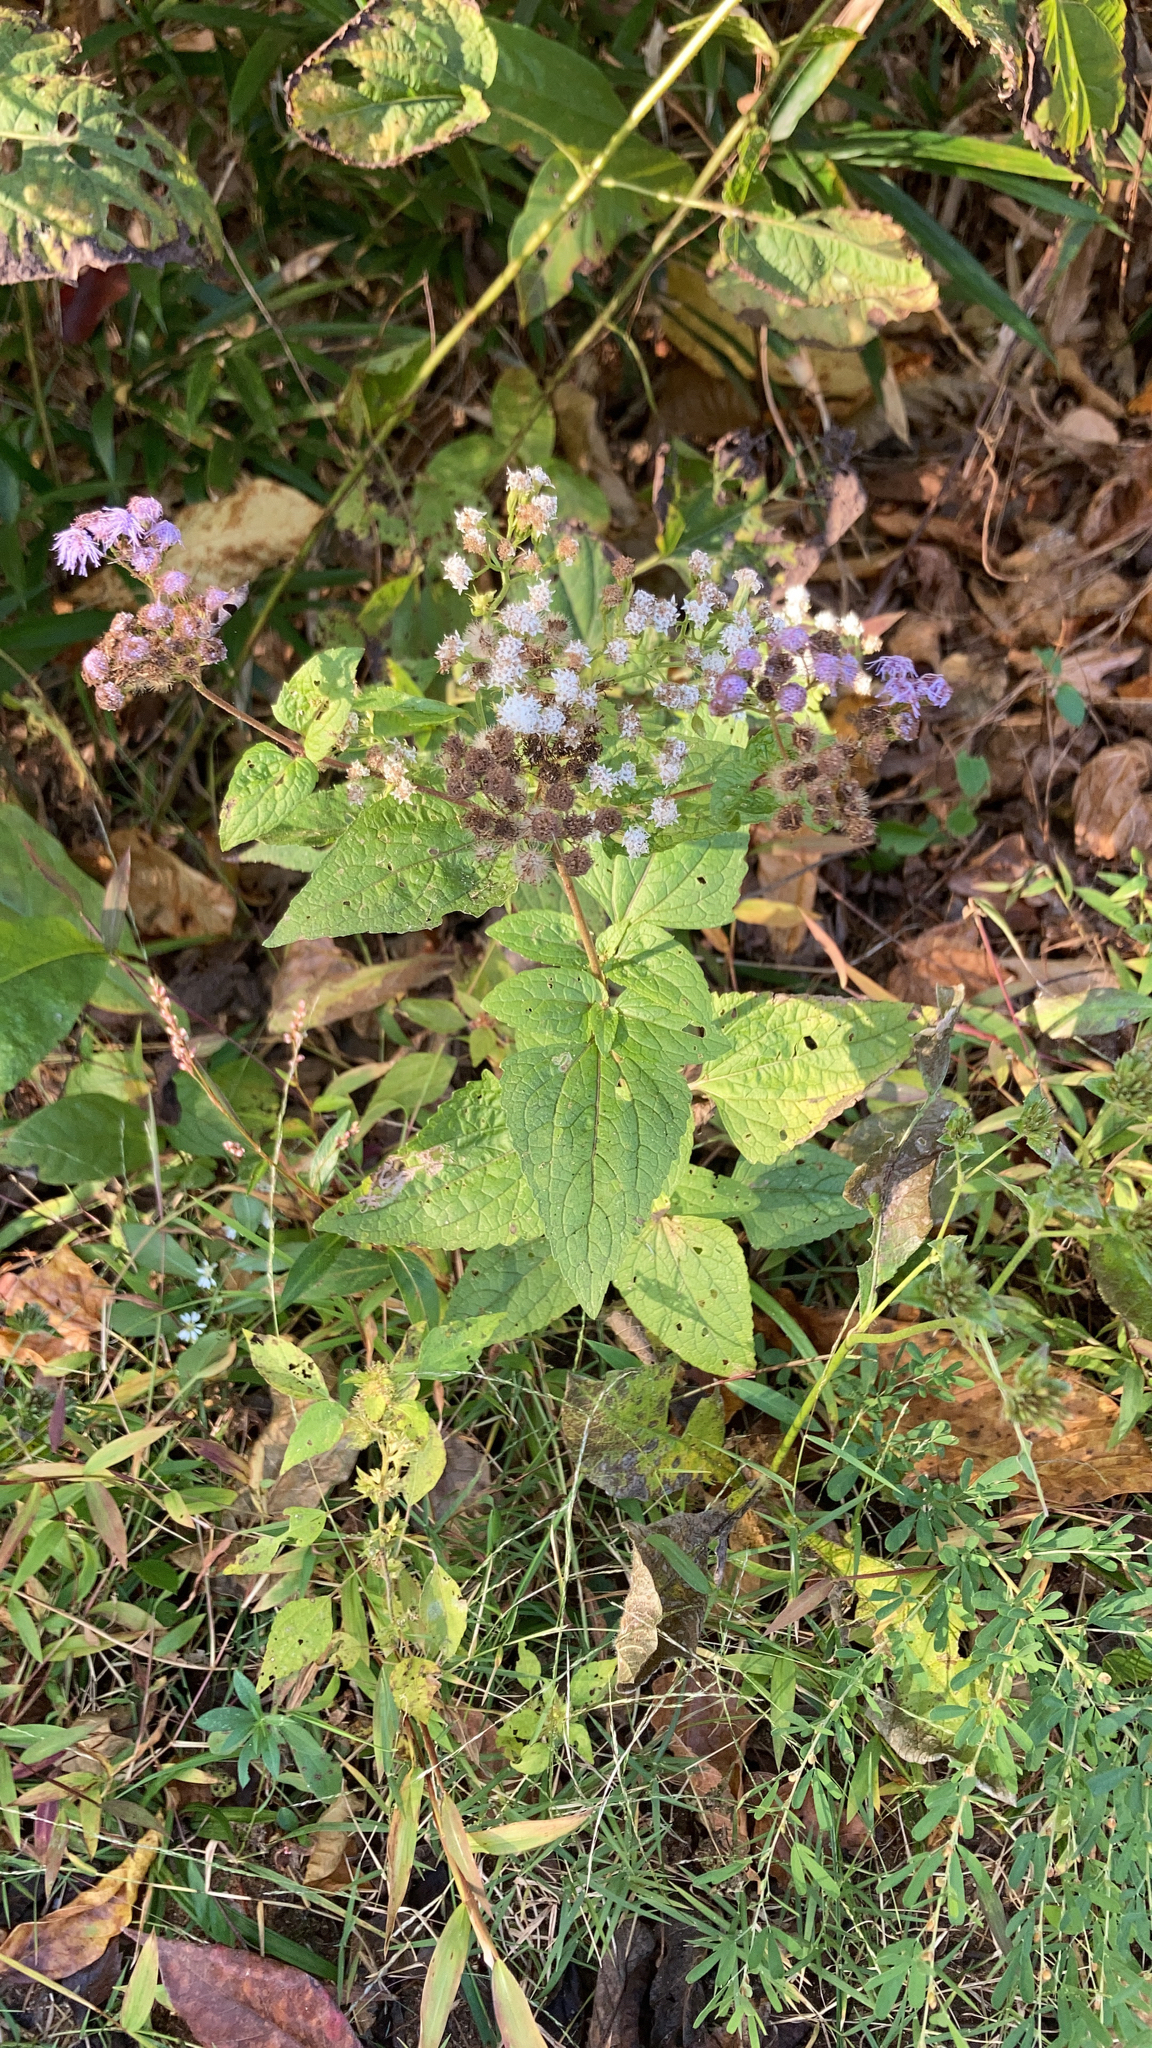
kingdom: Plantae
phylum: Tracheophyta
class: Magnoliopsida
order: Asterales
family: Asteraceae
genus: Conoclinium
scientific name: Conoclinium coelestinum
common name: Blue mistflower
